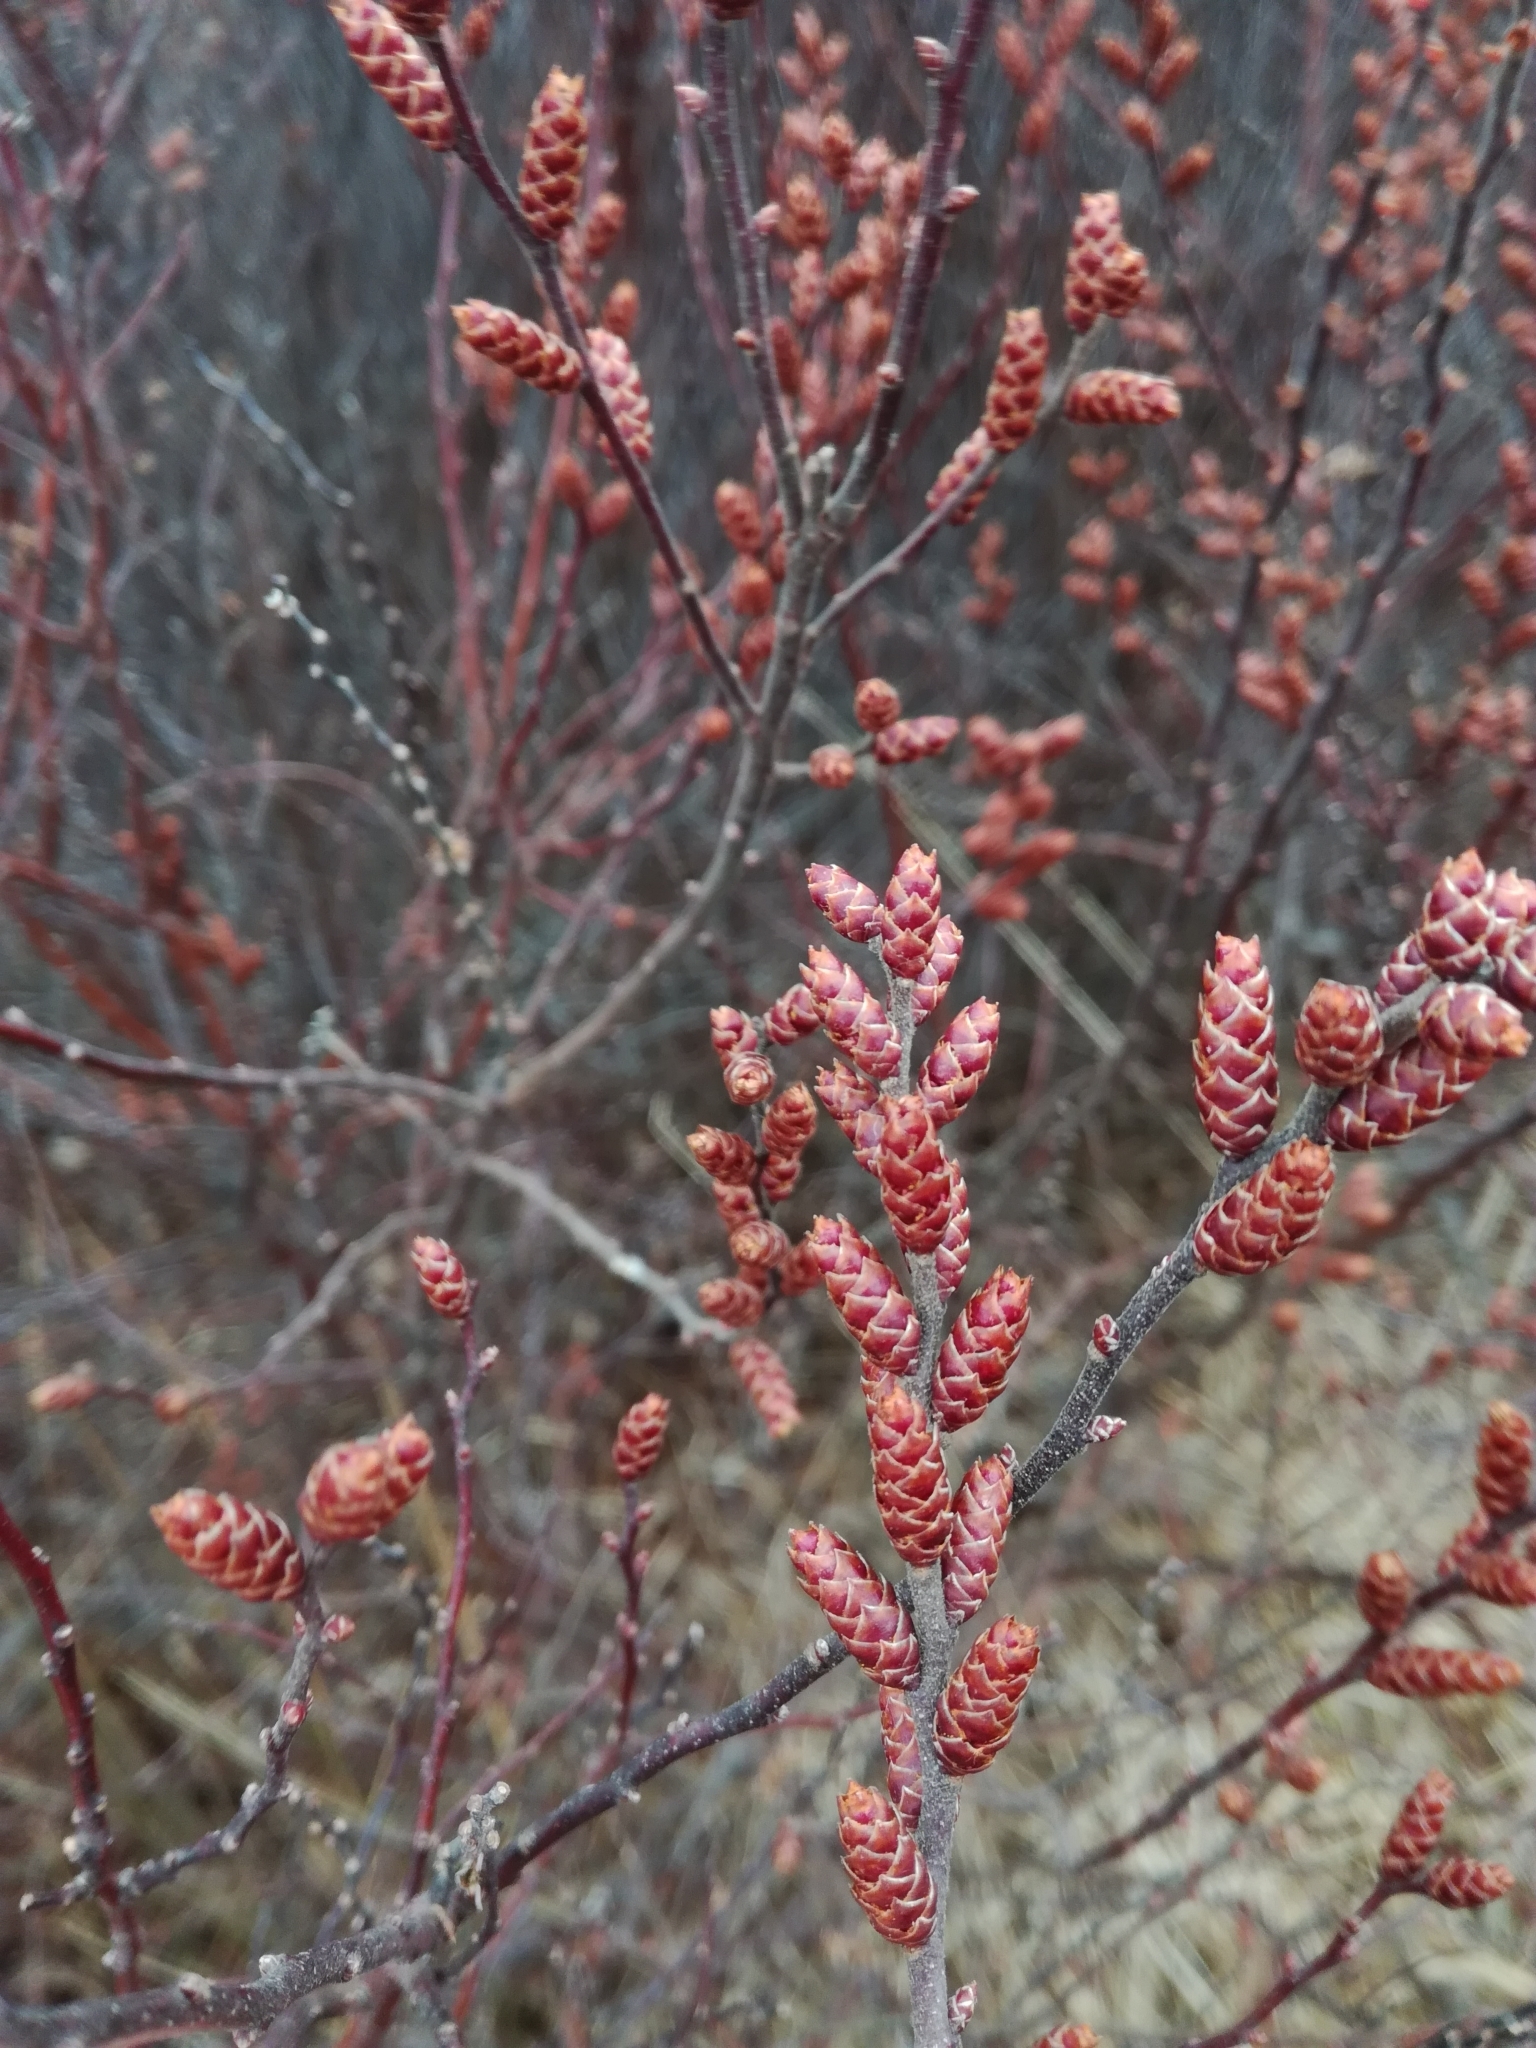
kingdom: Plantae
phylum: Tracheophyta
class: Magnoliopsida
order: Fagales
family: Myricaceae
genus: Myrica
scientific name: Myrica gale
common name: Sweet gale
